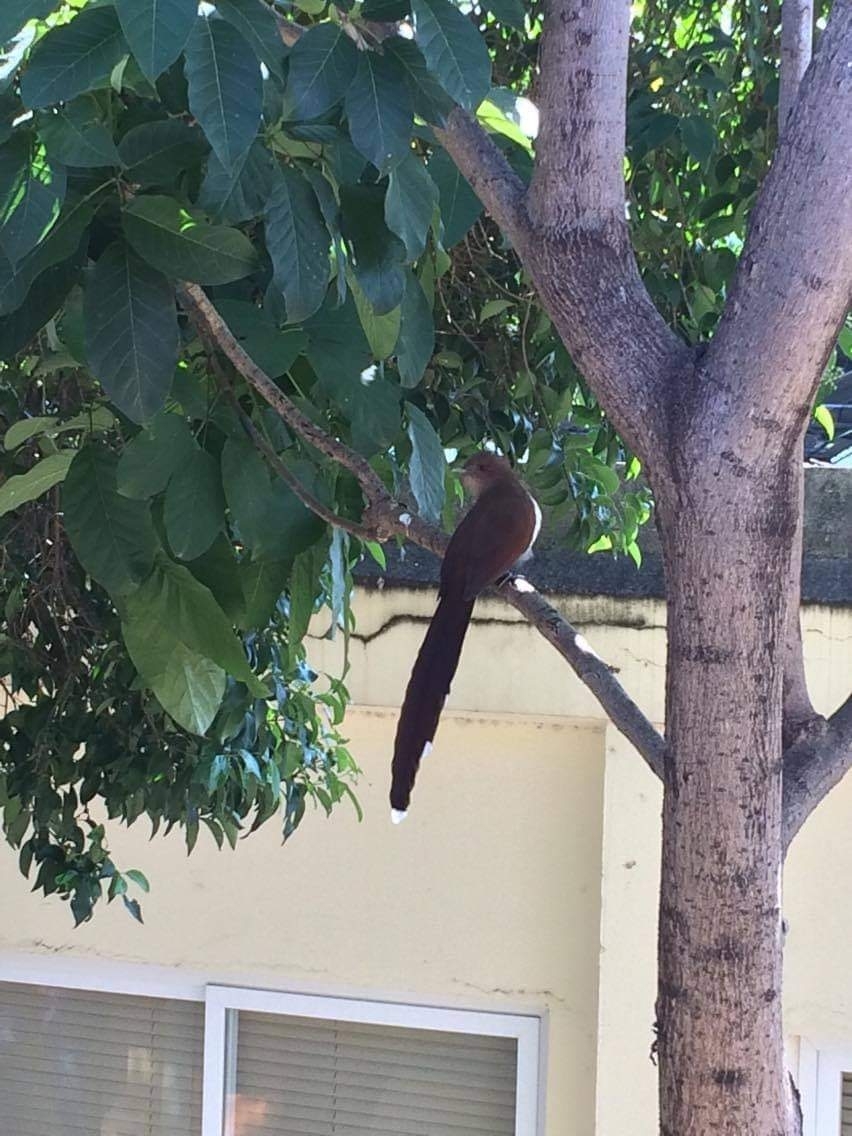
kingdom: Animalia
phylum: Chordata
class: Aves
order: Cuculiformes
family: Cuculidae
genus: Piaya
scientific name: Piaya cayana
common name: Squirrel cuckoo
